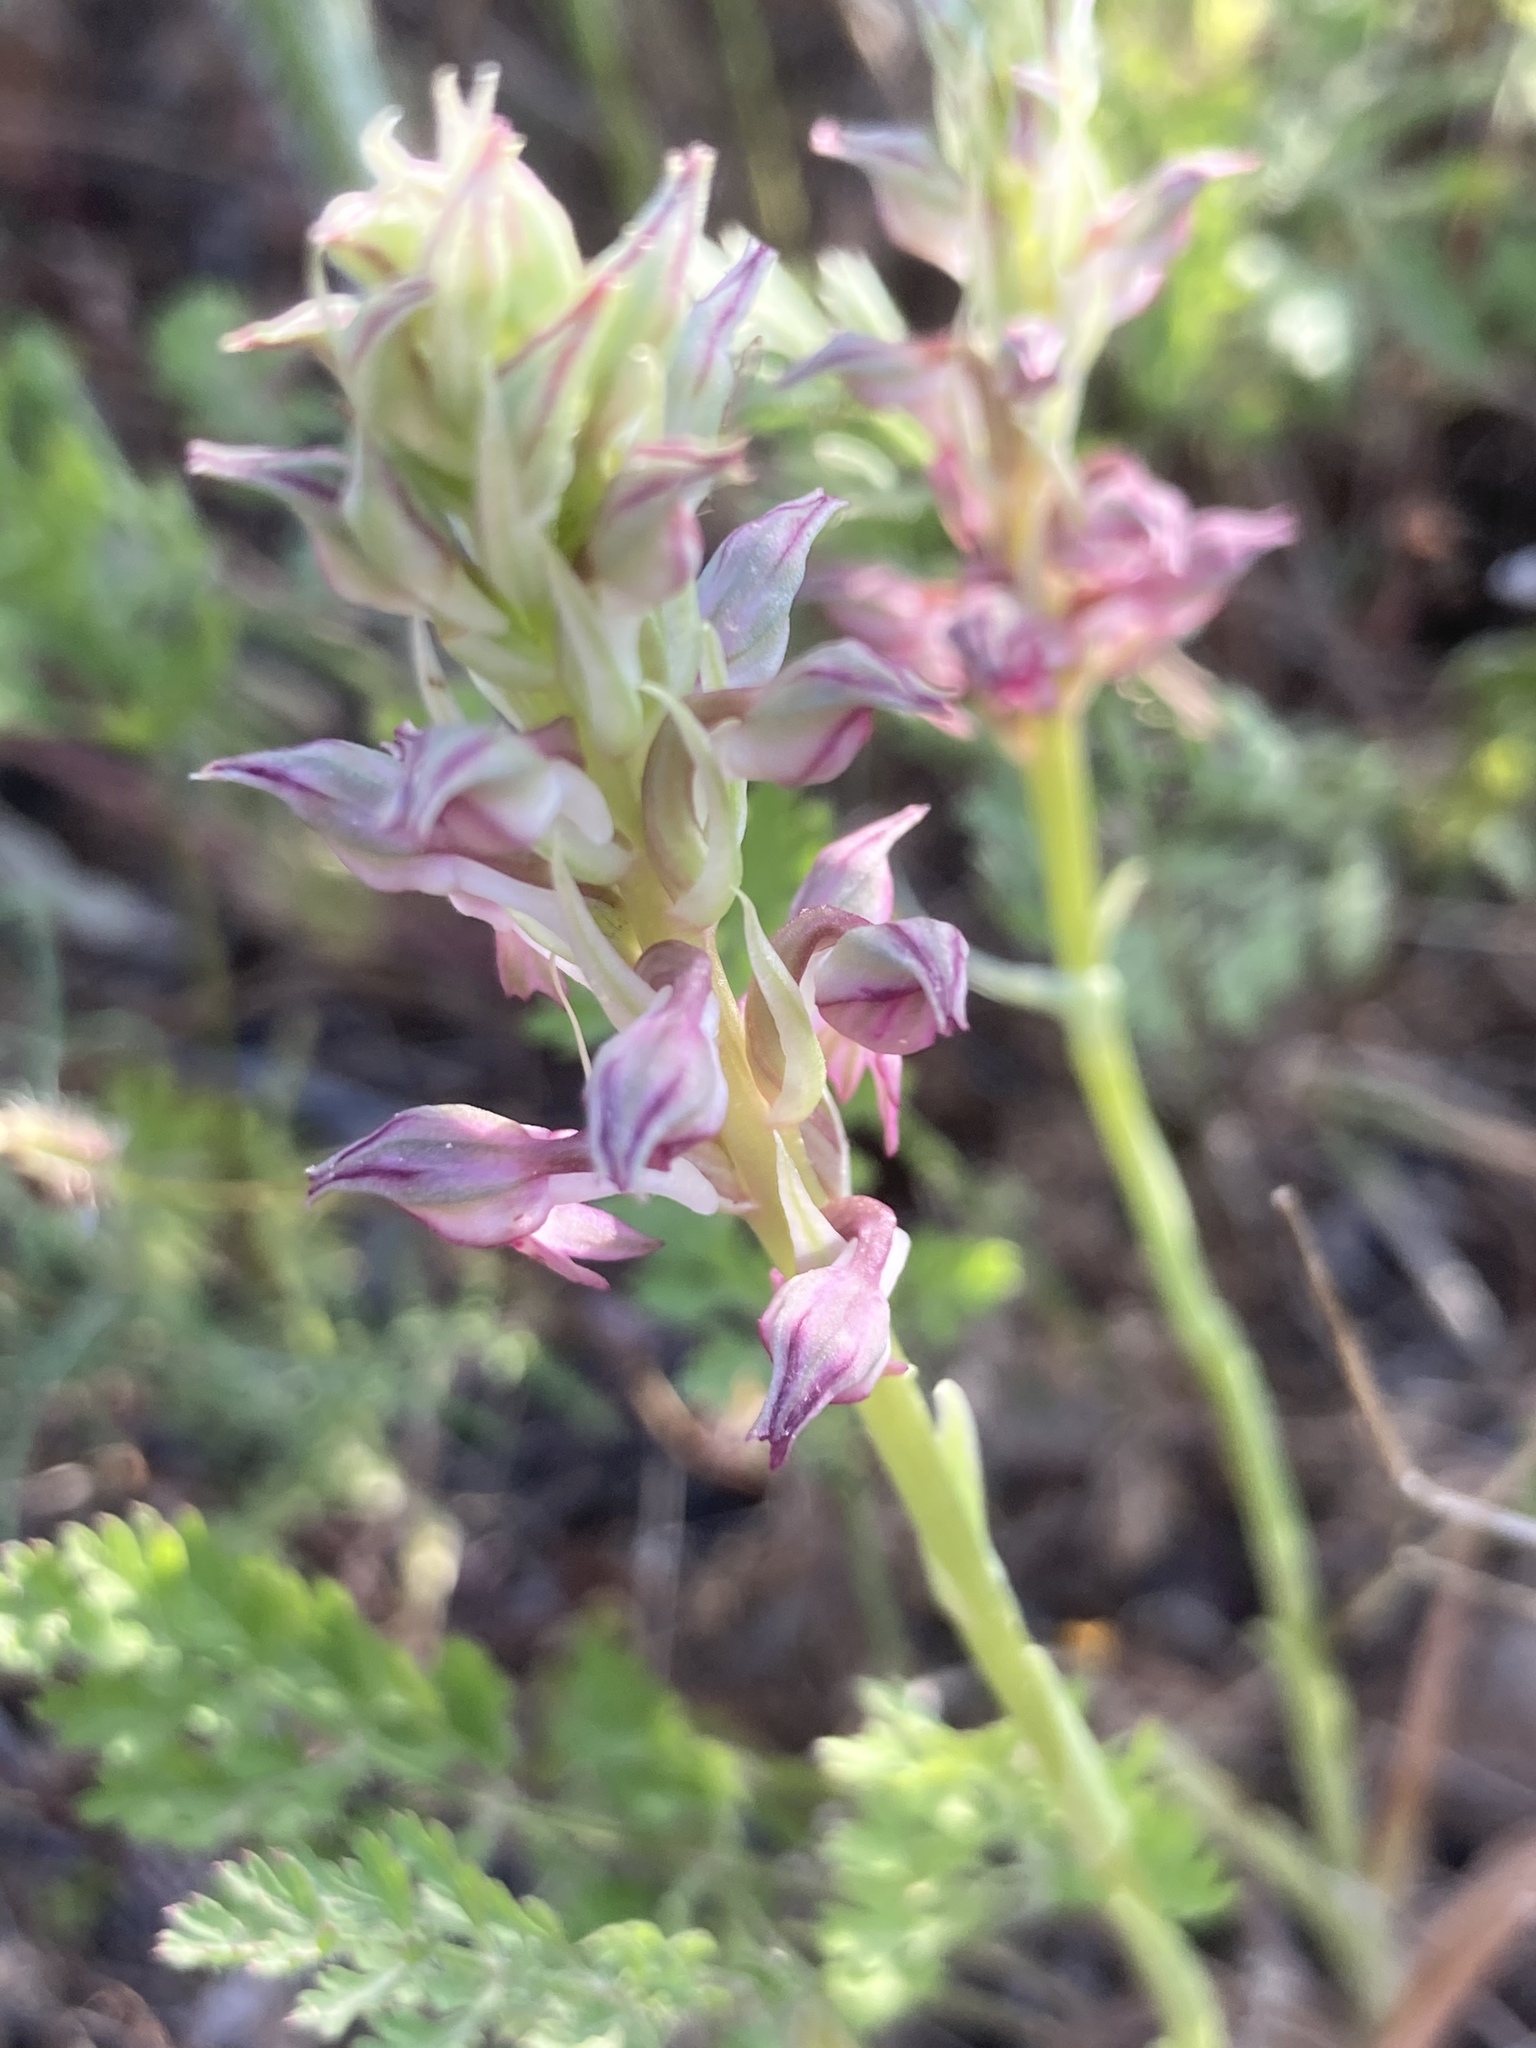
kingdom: Plantae
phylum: Tracheophyta
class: Liliopsida
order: Asparagales
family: Orchidaceae
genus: Anacamptis
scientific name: Anacamptis coriophora
